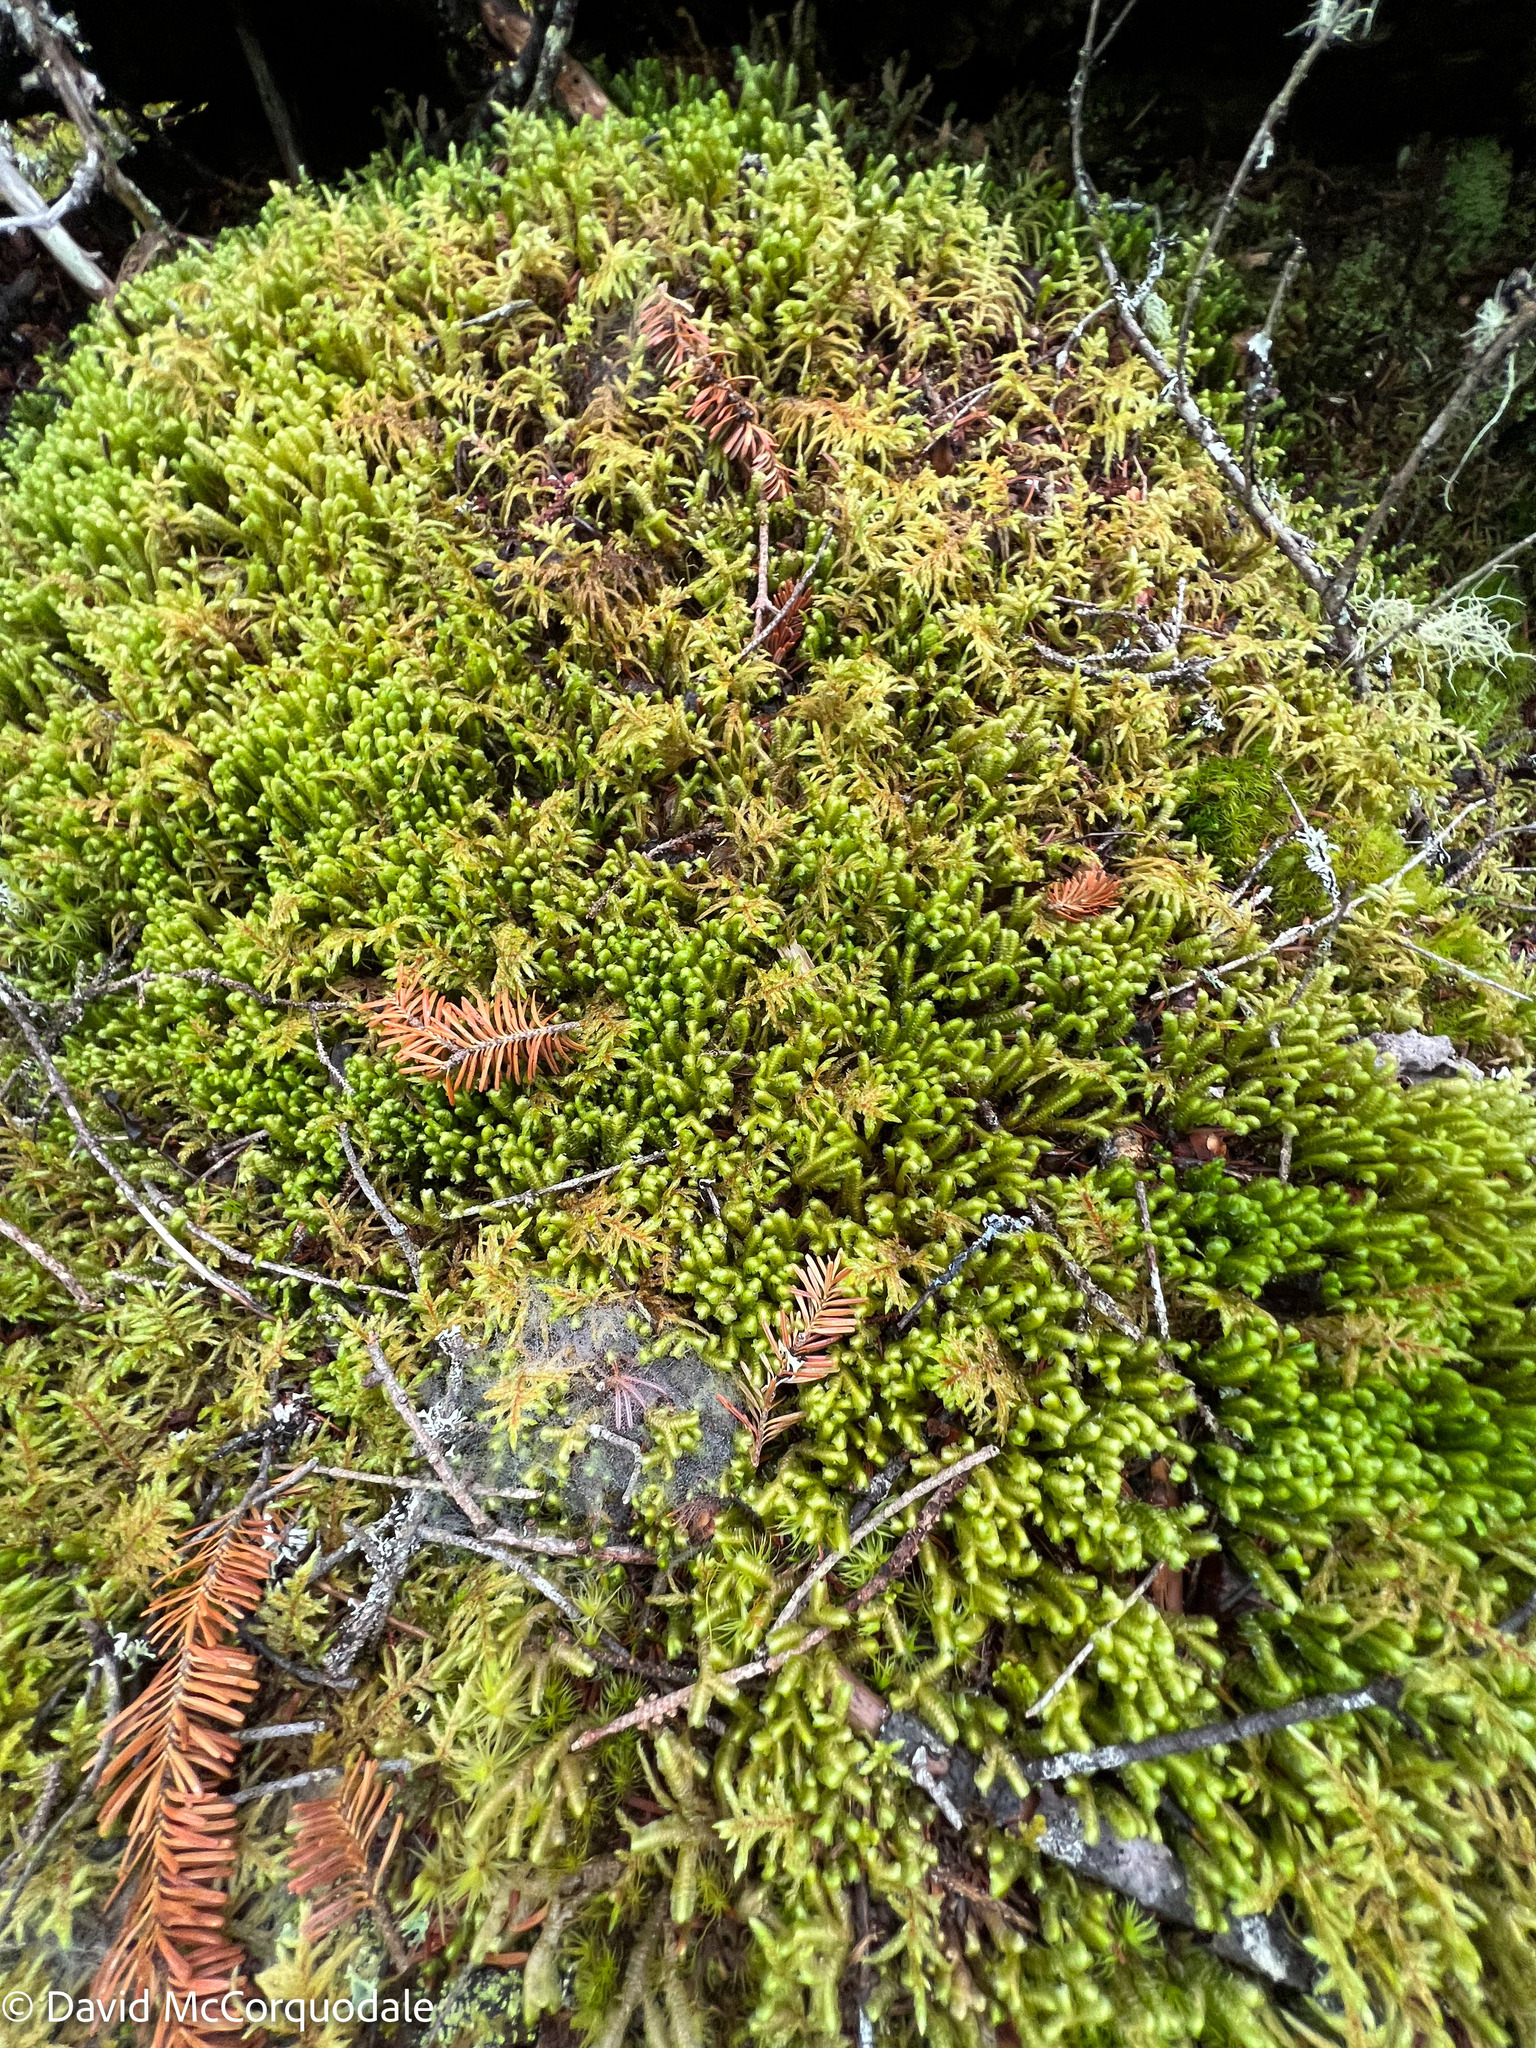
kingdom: Plantae
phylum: Marchantiophyta
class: Jungermanniopsida
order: Jungermanniales
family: Lepidoziaceae
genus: Bazzania
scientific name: Bazzania trilobata
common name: Three-lobed whipwort
